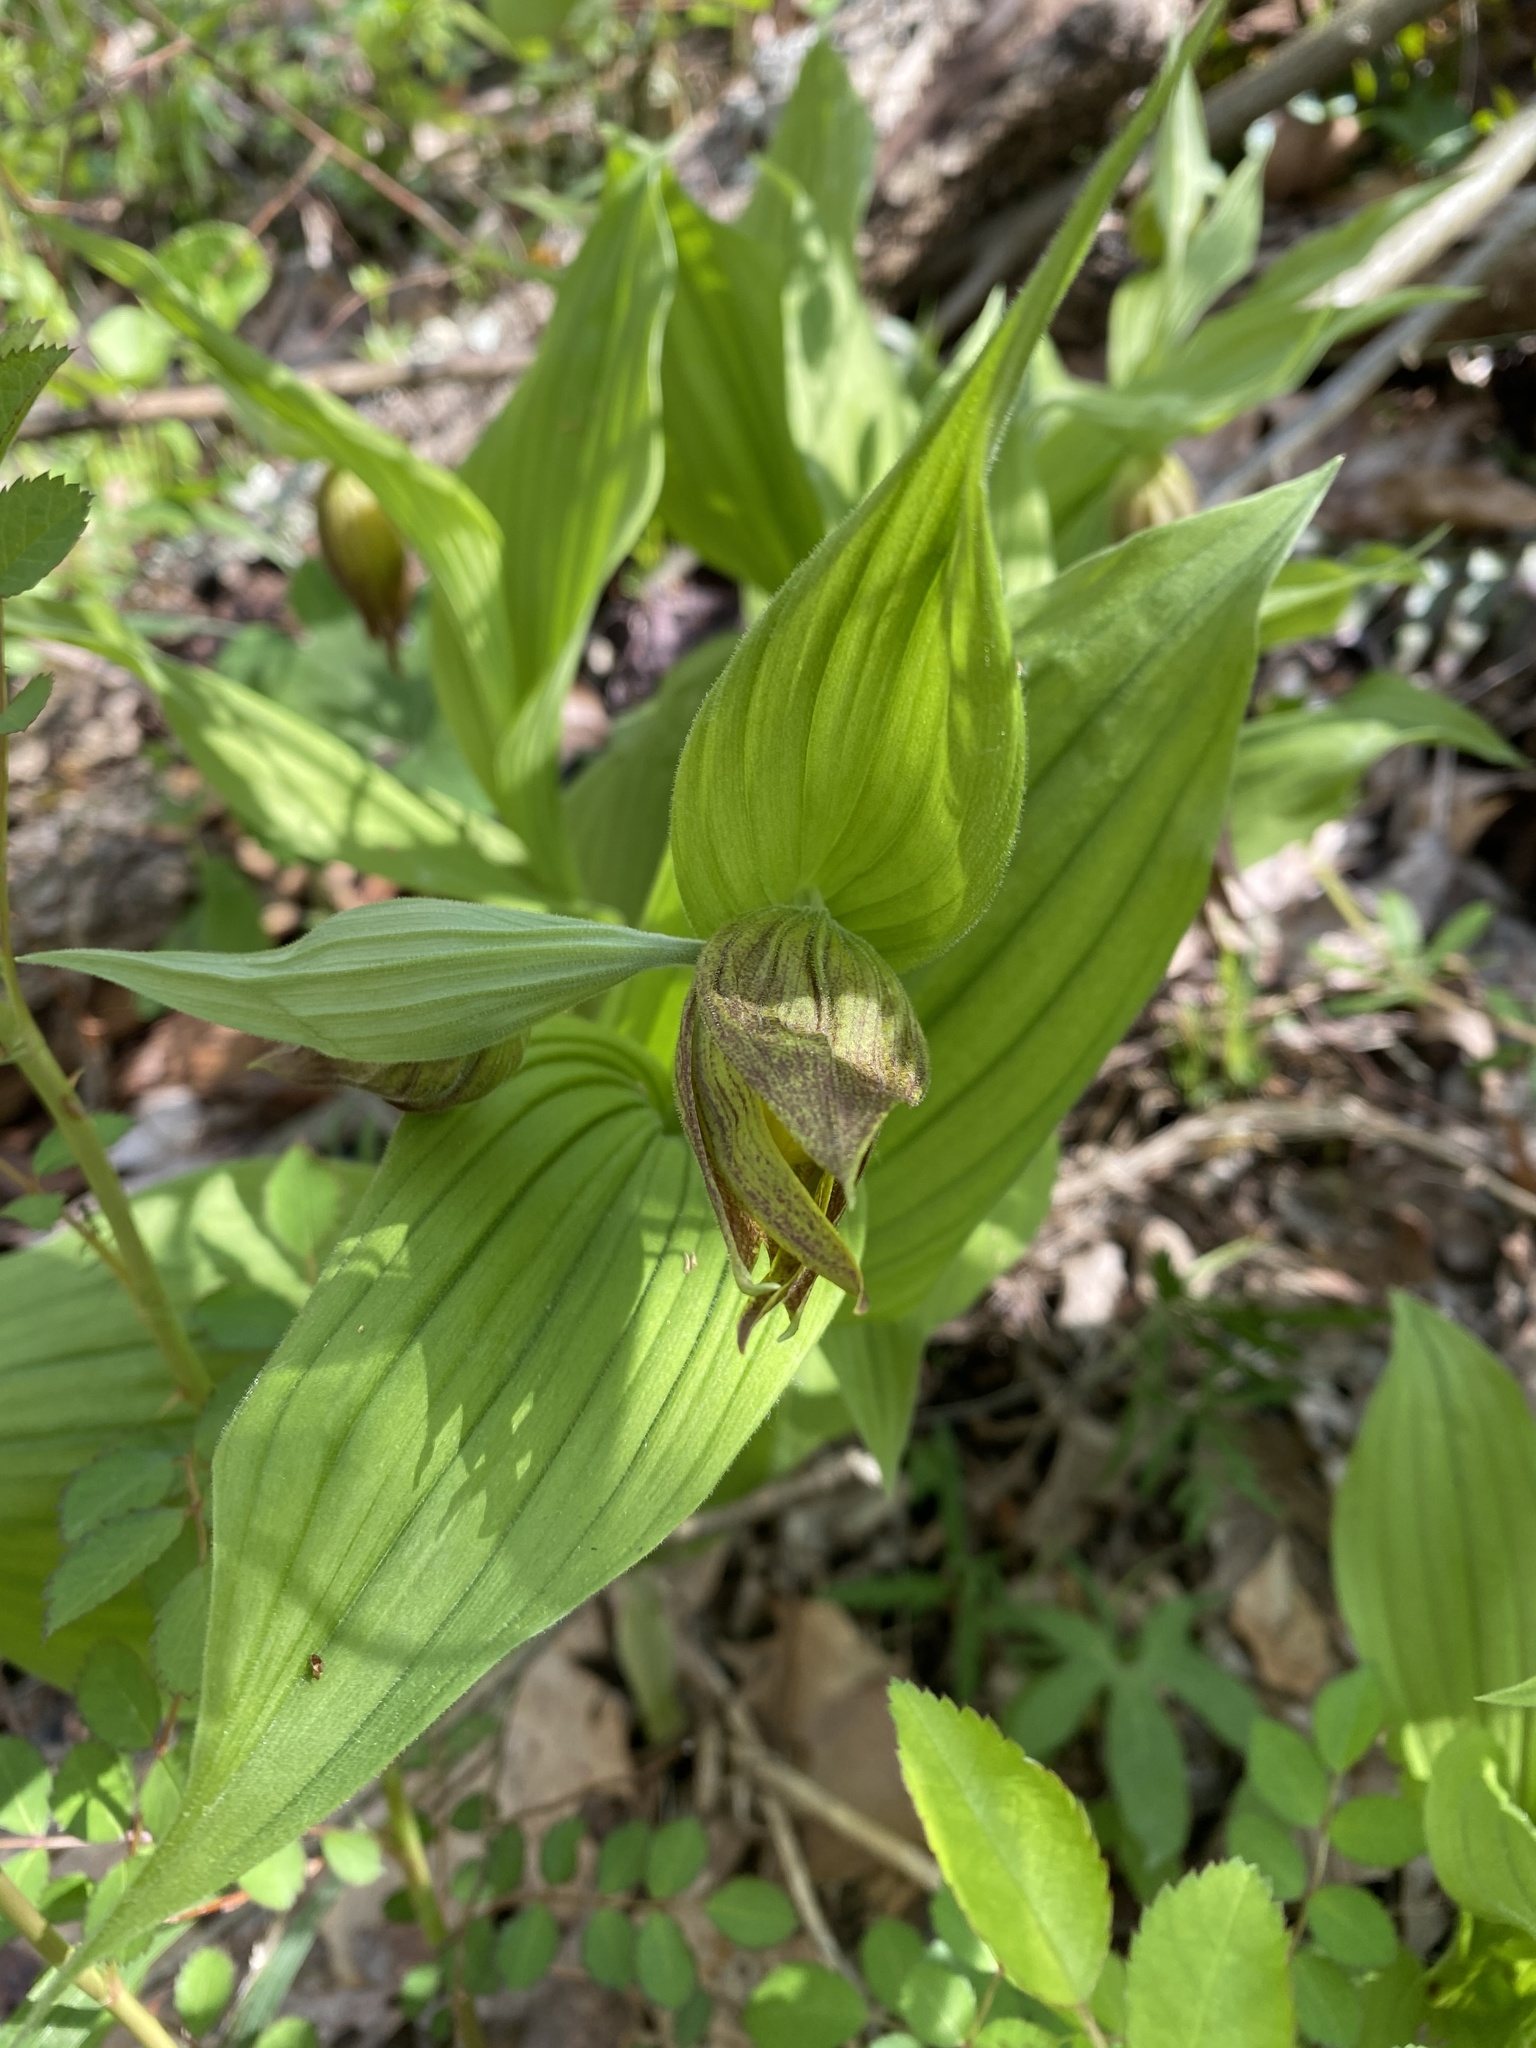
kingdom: Plantae
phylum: Tracheophyta
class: Liliopsida
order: Asparagales
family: Orchidaceae
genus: Cypripedium
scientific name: Cypripedium parviflorum
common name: American yellow lady's-slipper
